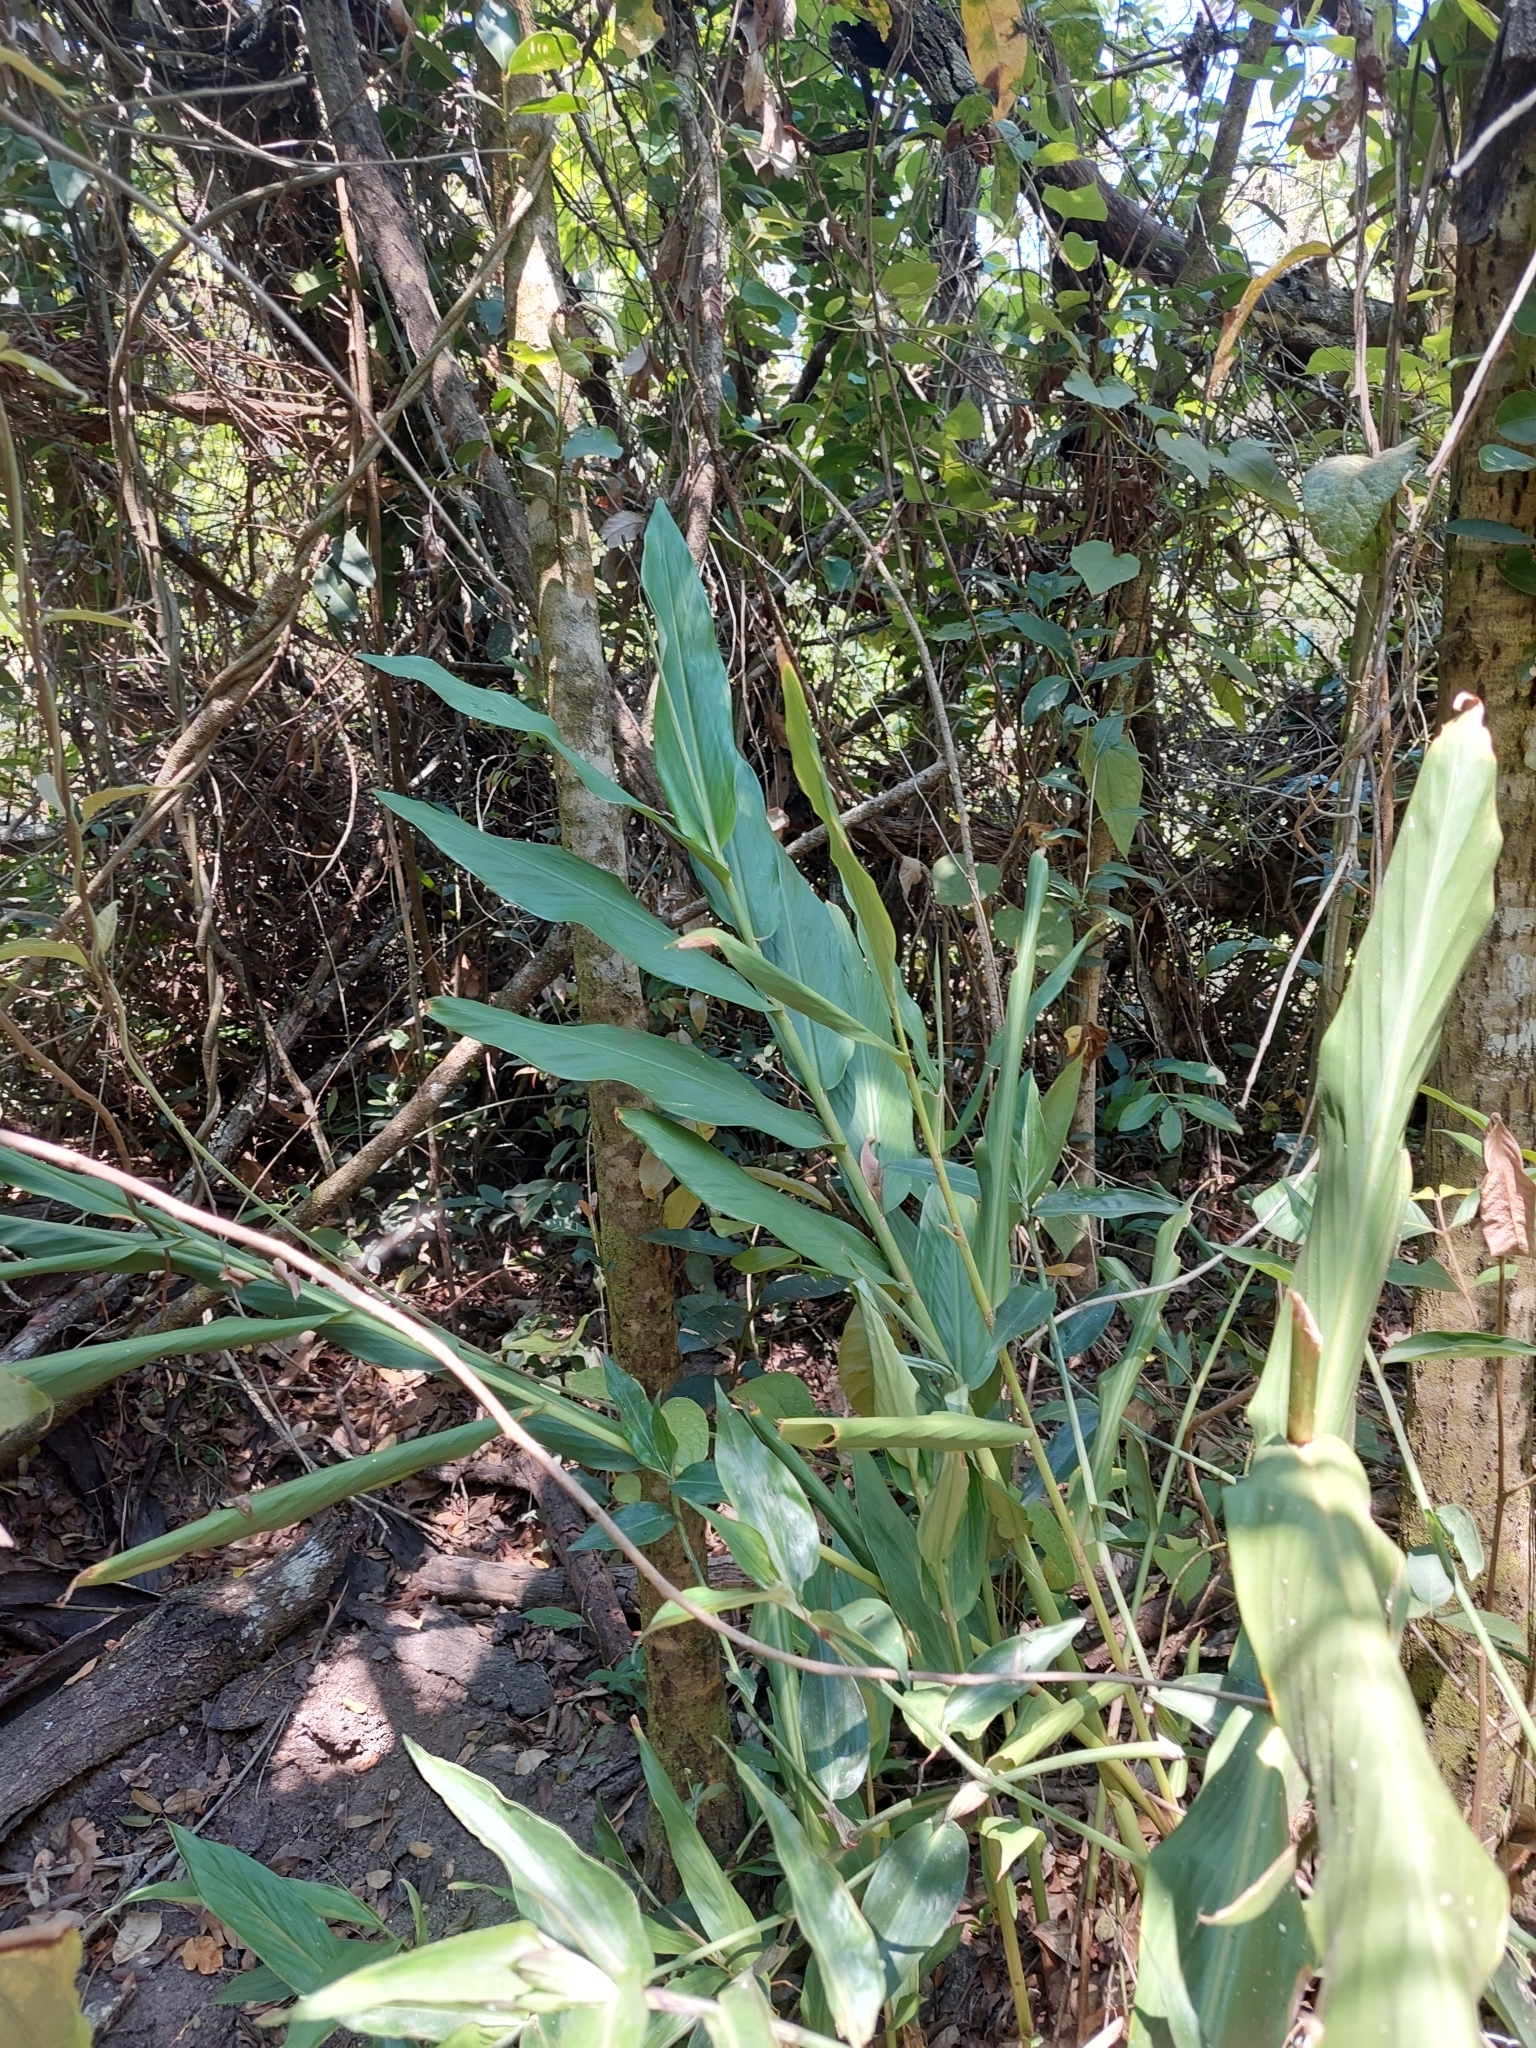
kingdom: Plantae
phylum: Tracheophyta
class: Liliopsida
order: Zingiberales
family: Zingiberaceae
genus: Hedychium
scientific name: Hedychium coronarium
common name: White garland-lily
